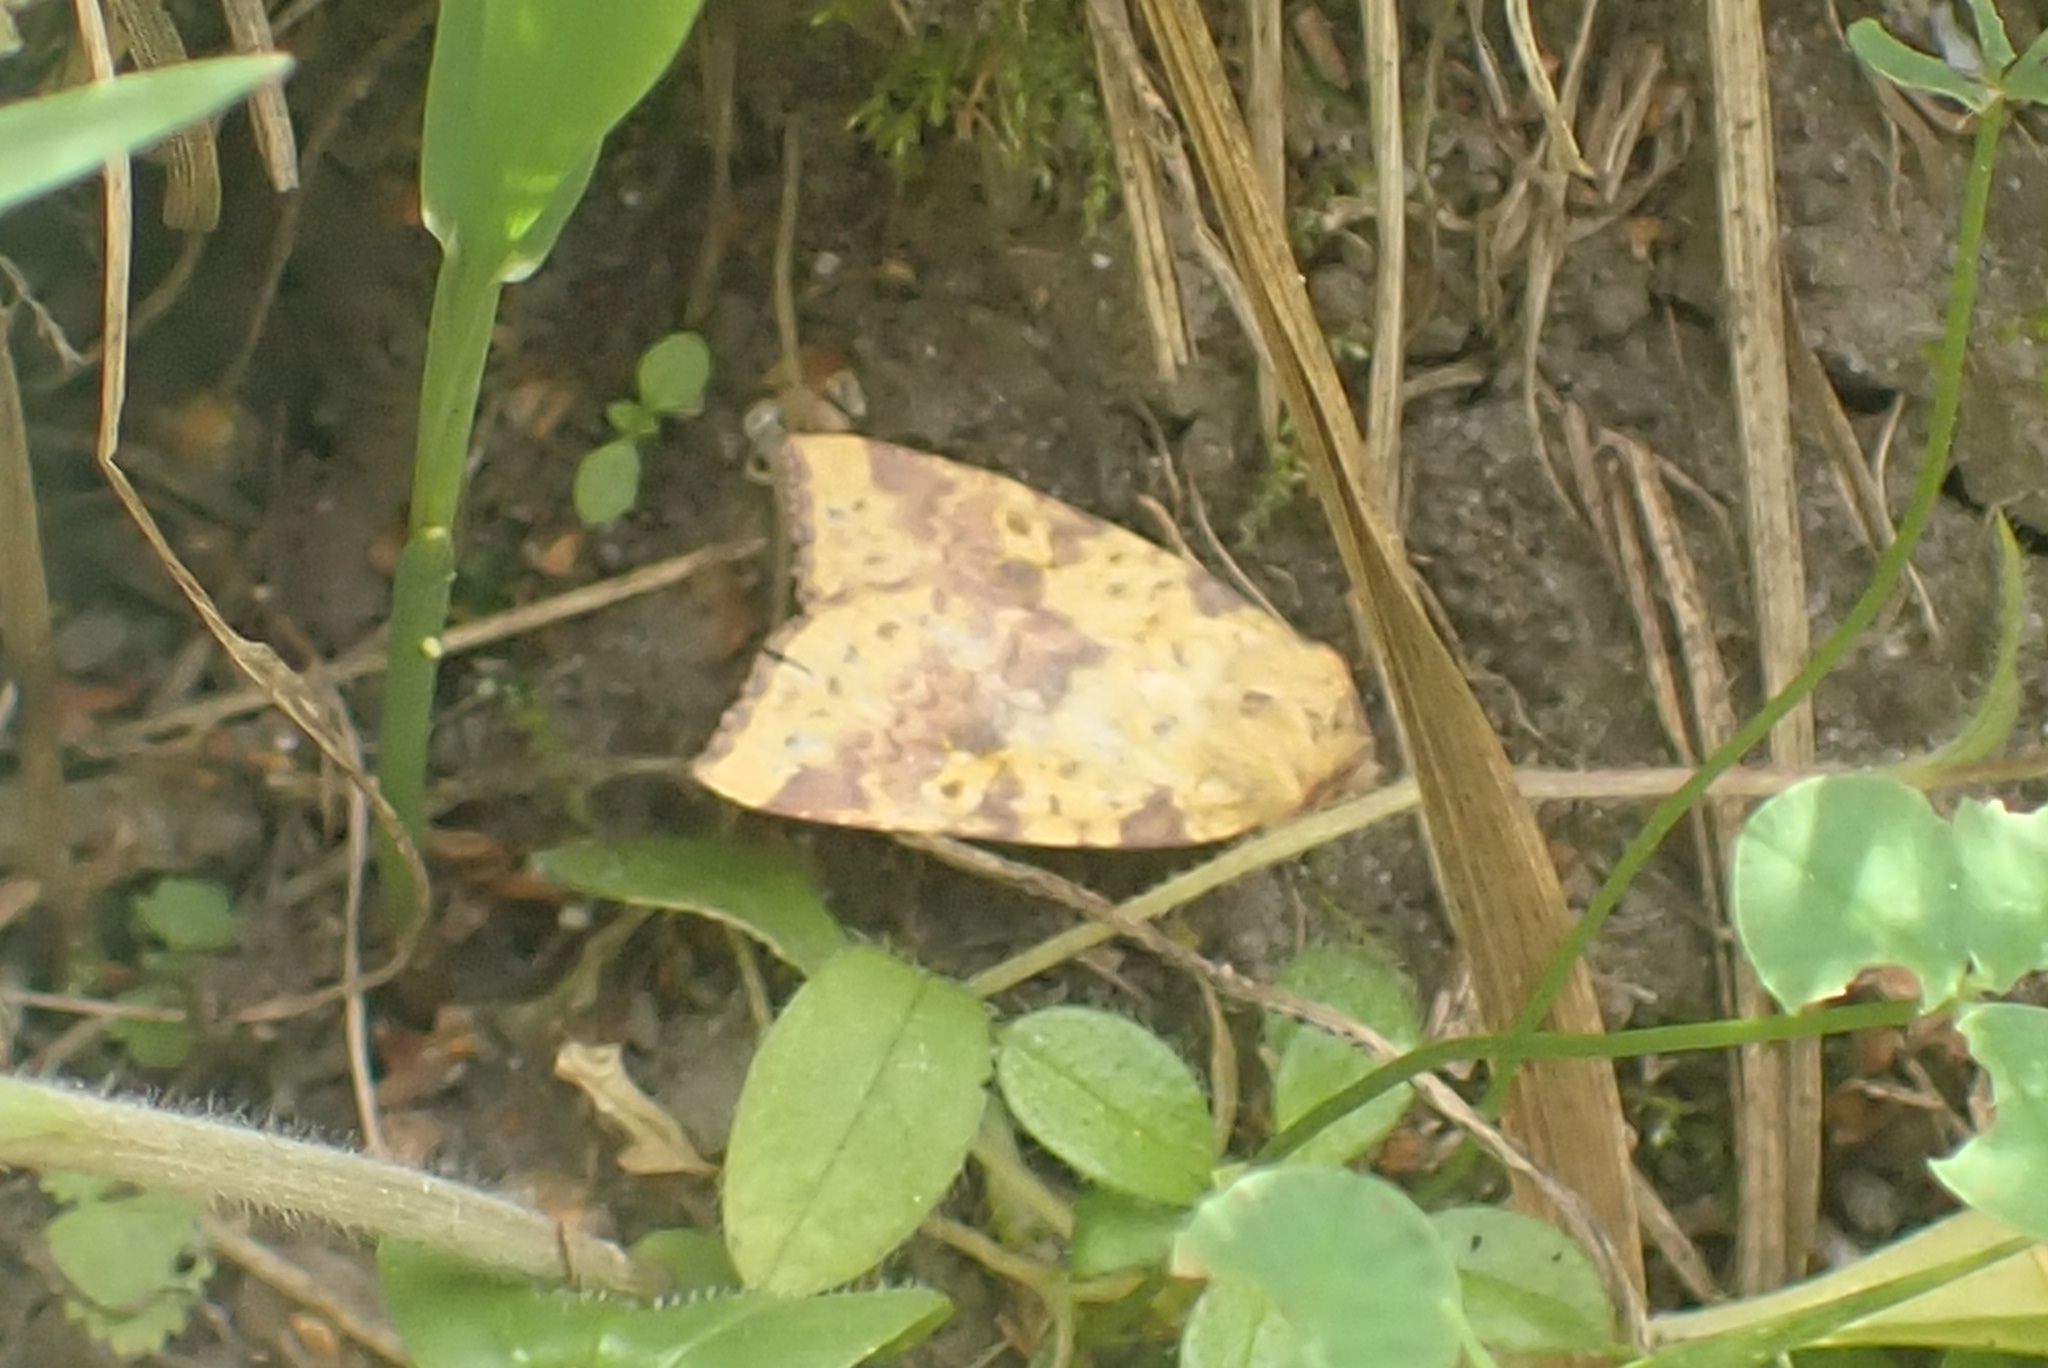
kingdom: Animalia
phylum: Arthropoda
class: Insecta
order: Lepidoptera
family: Noctuidae
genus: Xanthia
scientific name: Xanthia togata
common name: Pink-barred sallow
